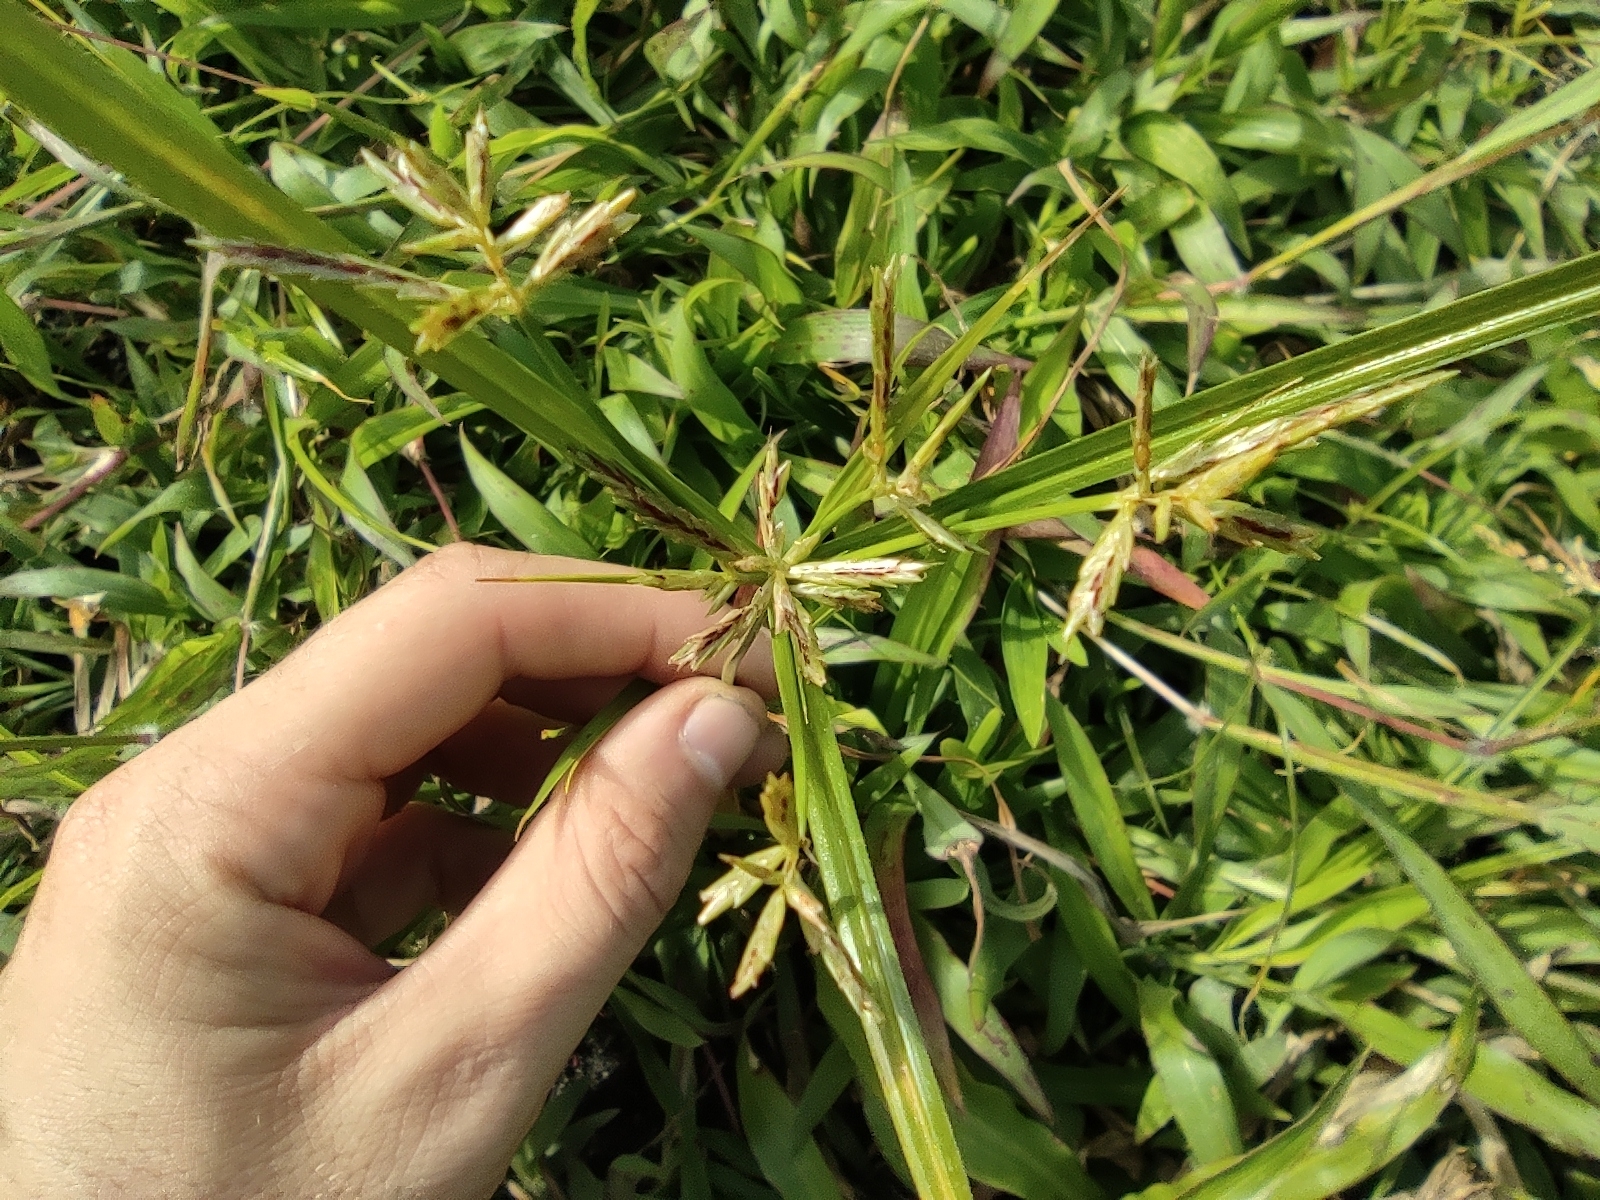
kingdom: Plantae
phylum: Tracheophyta
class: Liliopsida
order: Poales
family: Cyperaceae
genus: Cyperus
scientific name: Cyperus sphacelatus
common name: Roadside flatsedge
